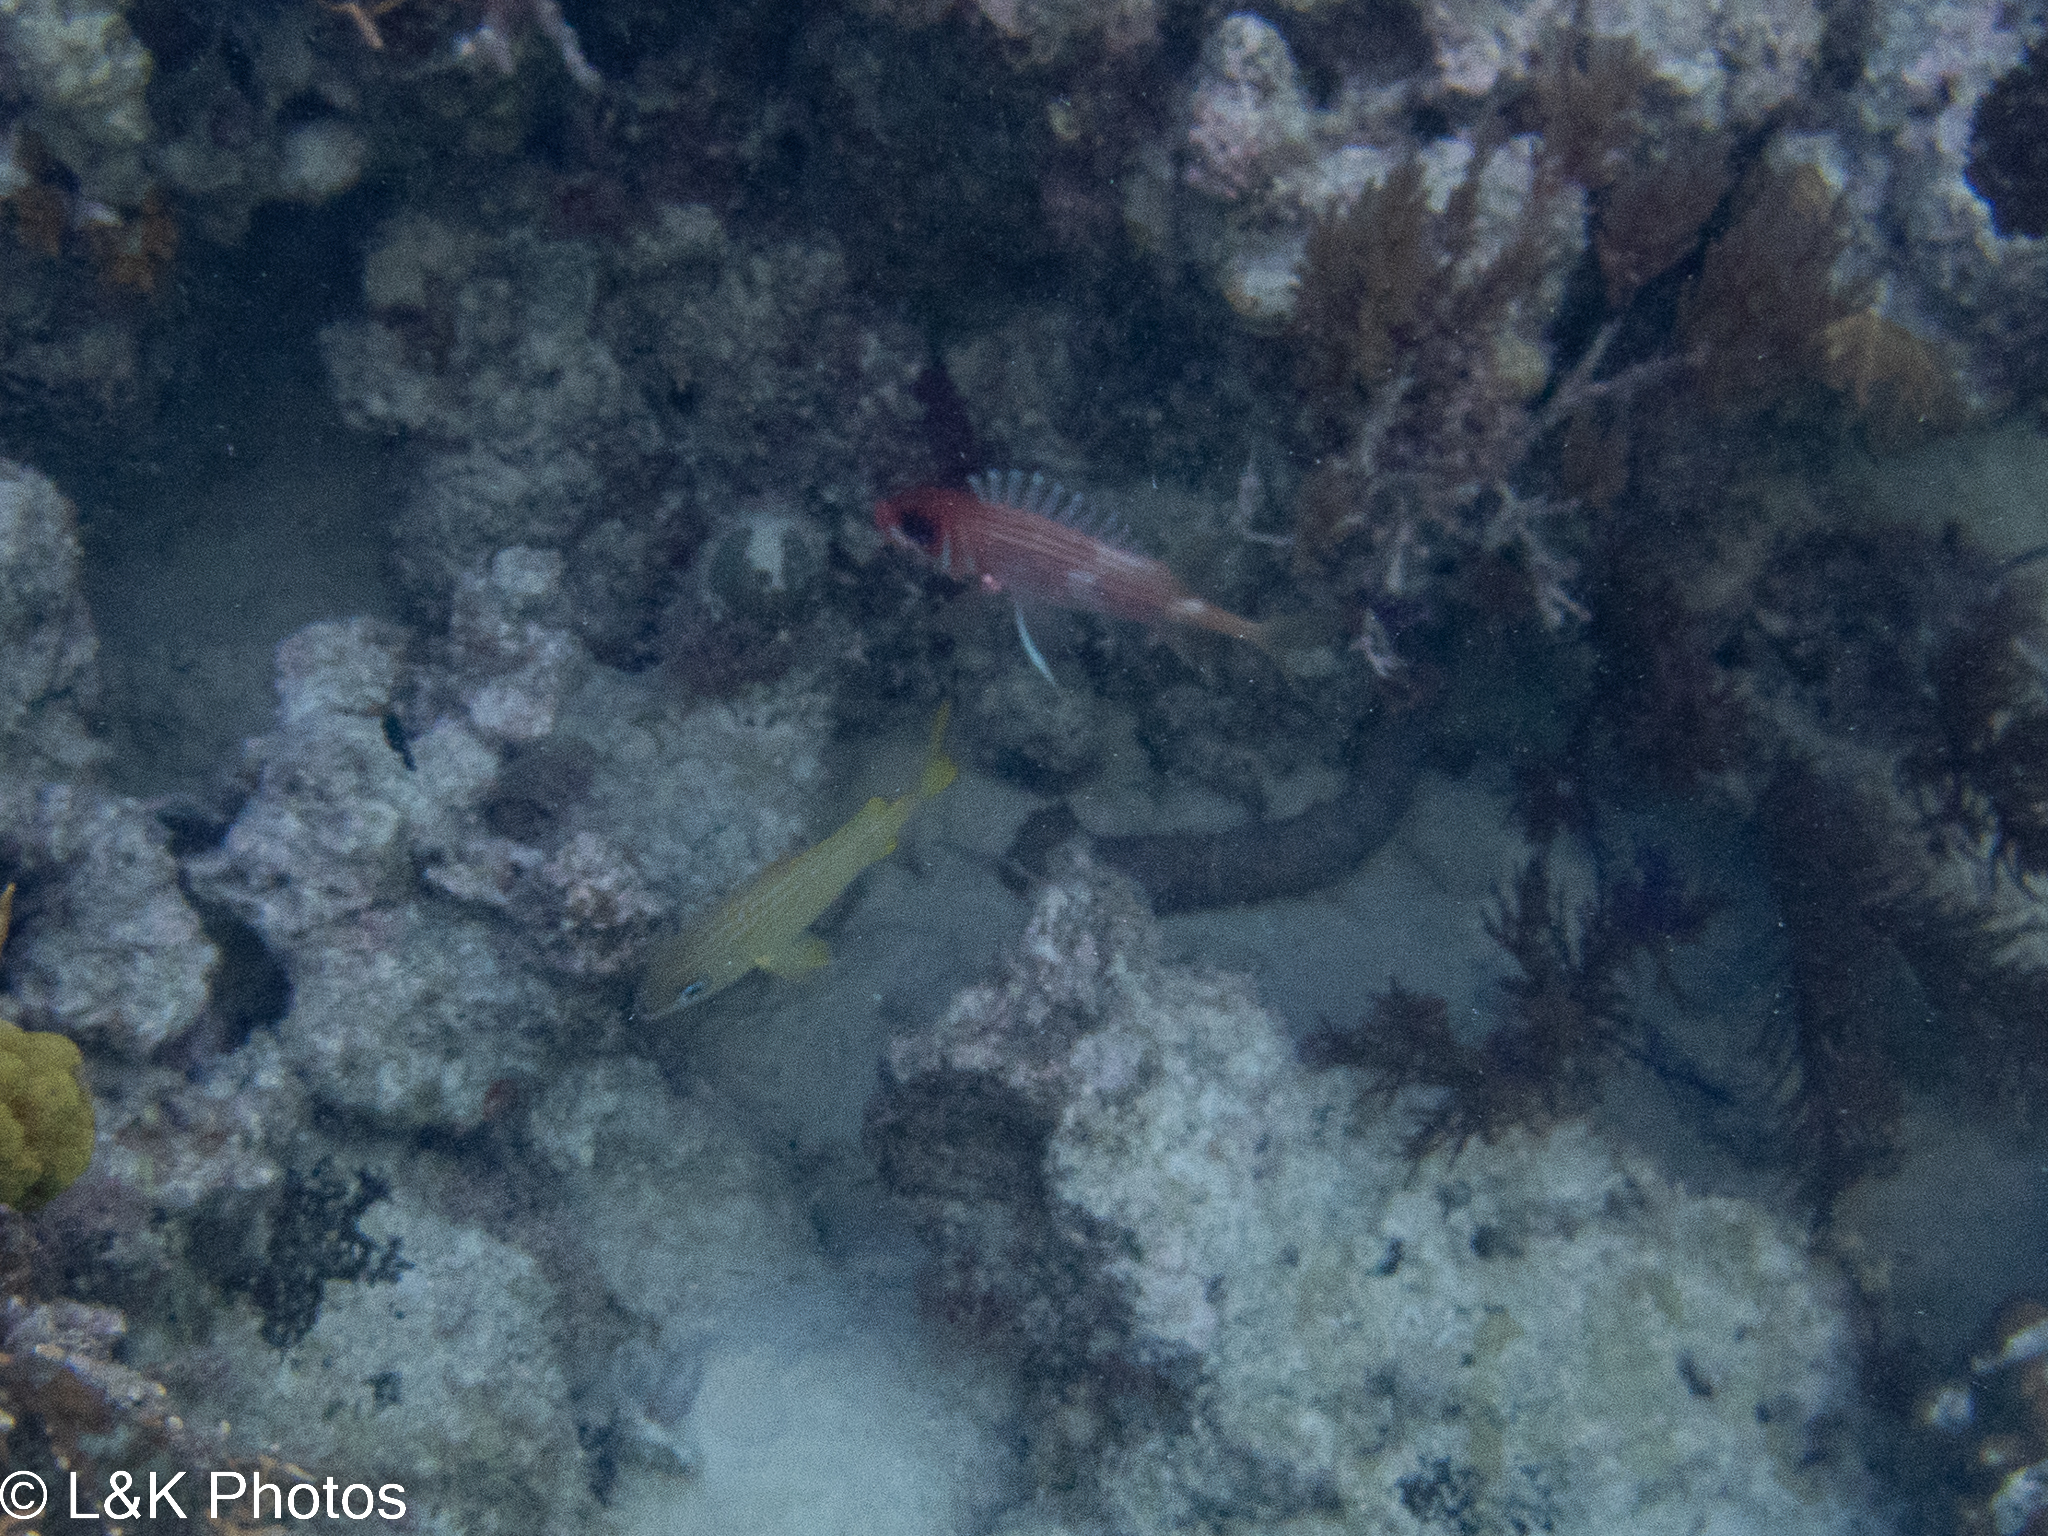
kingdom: Animalia
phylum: Chordata
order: Beryciformes
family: Holocentridae
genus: Holocentrus
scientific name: Holocentrus rufus
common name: Longspine squirrelfish
